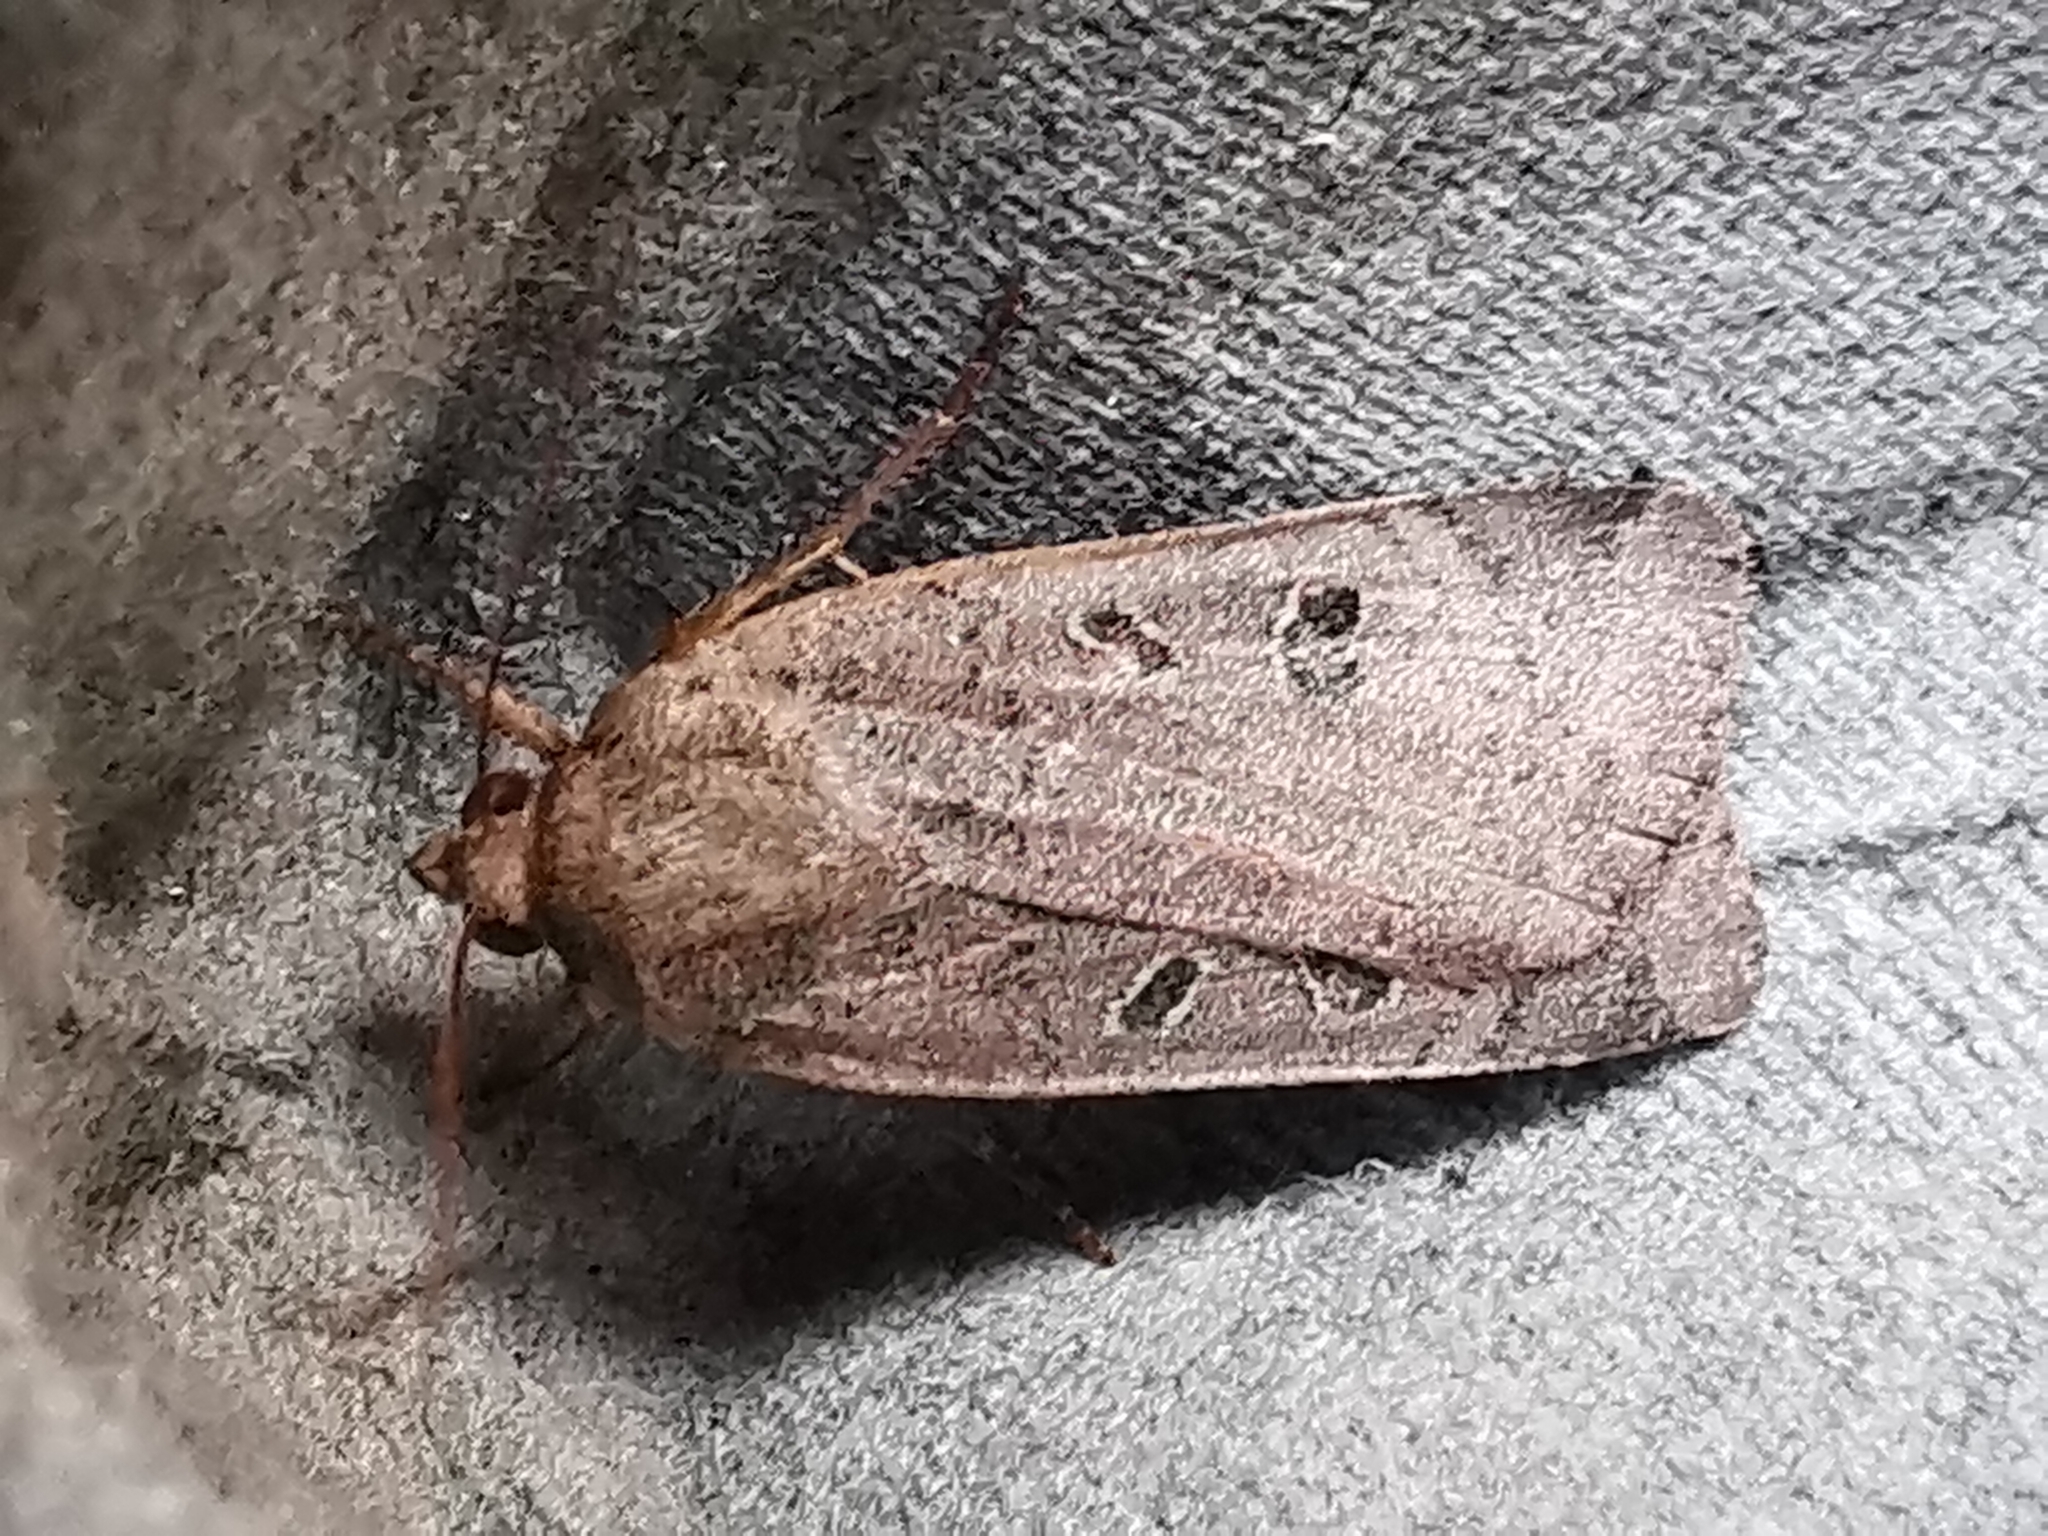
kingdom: Animalia
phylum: Arthropoda
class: Insecta
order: Lepidoptera
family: Noctuidae
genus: Noctua
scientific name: Noctua comes
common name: Lesser yellow underwing
